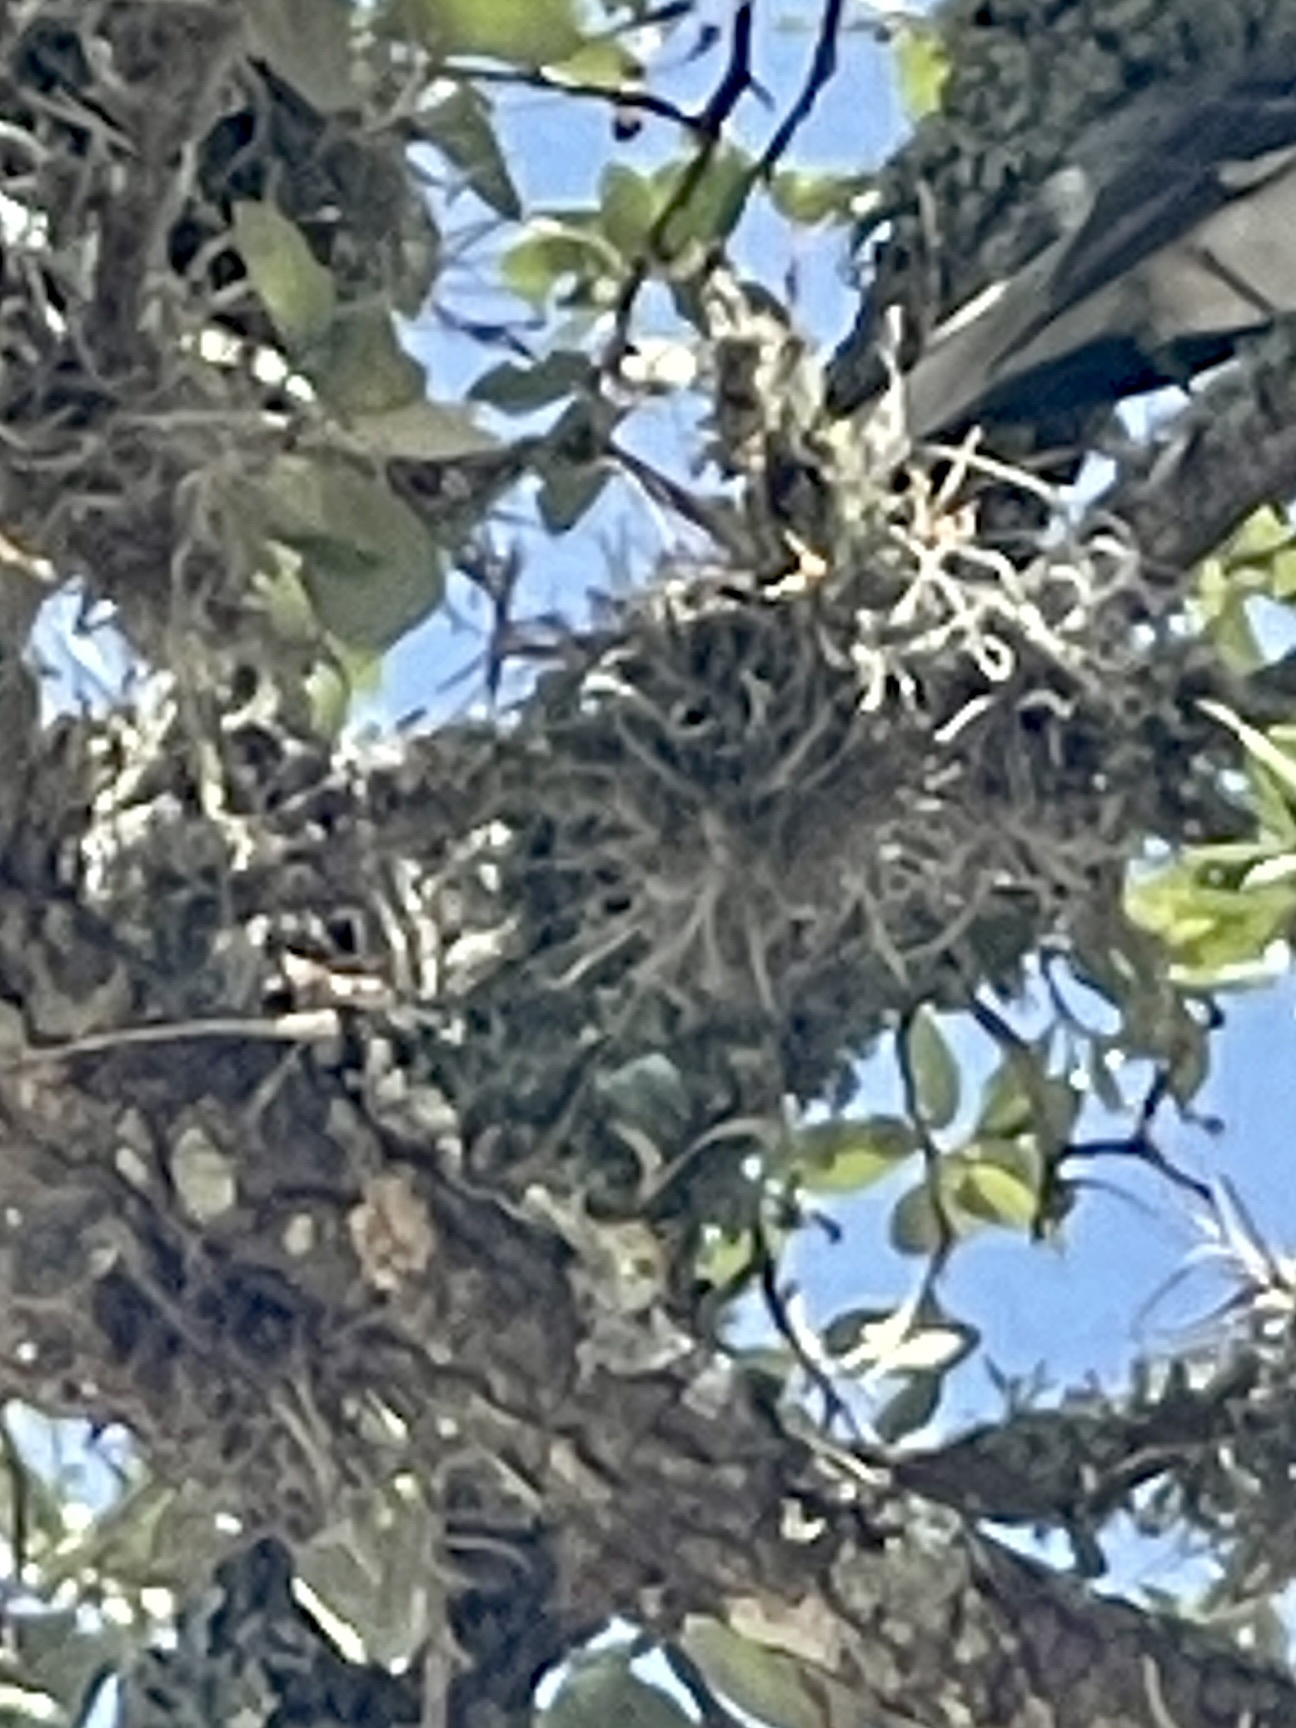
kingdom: Plantae
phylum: Tracheophyta
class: Liliopsida
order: Poales
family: Bromeliaceae
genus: Tillandsia
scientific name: Tillandsia recurvata
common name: Small ballmoss
